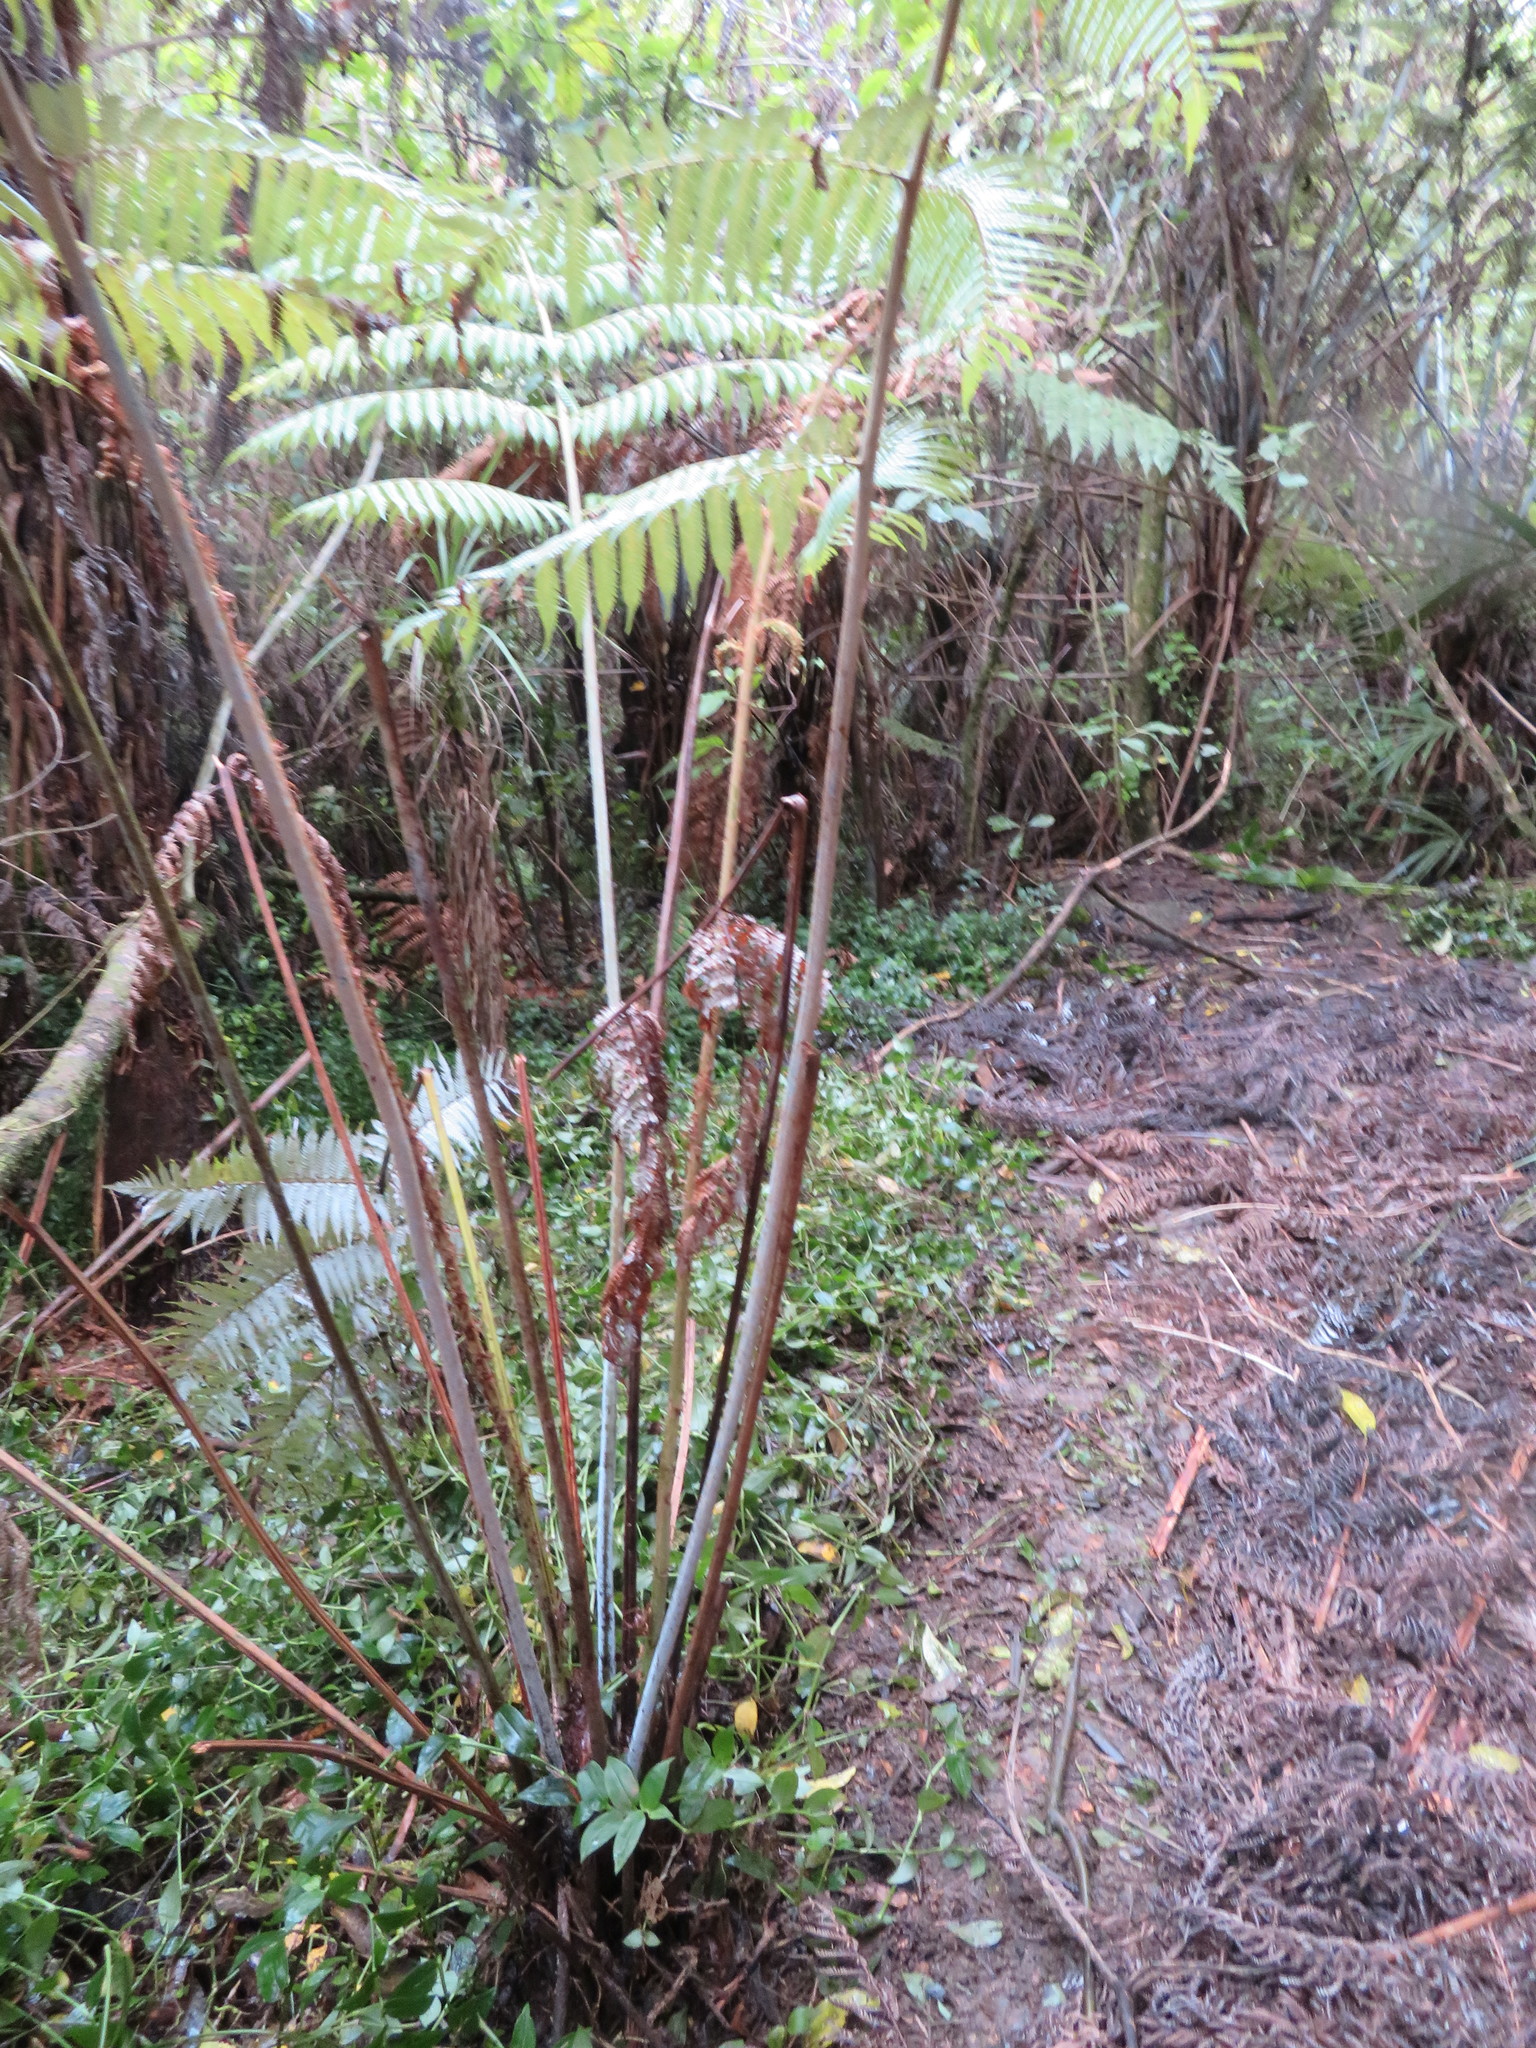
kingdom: Plantae
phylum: Tracheophyta
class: Polypodiopsida
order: Cyatheales
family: Cyatheaceae
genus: Alsophila
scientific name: Alsophila dealbata
